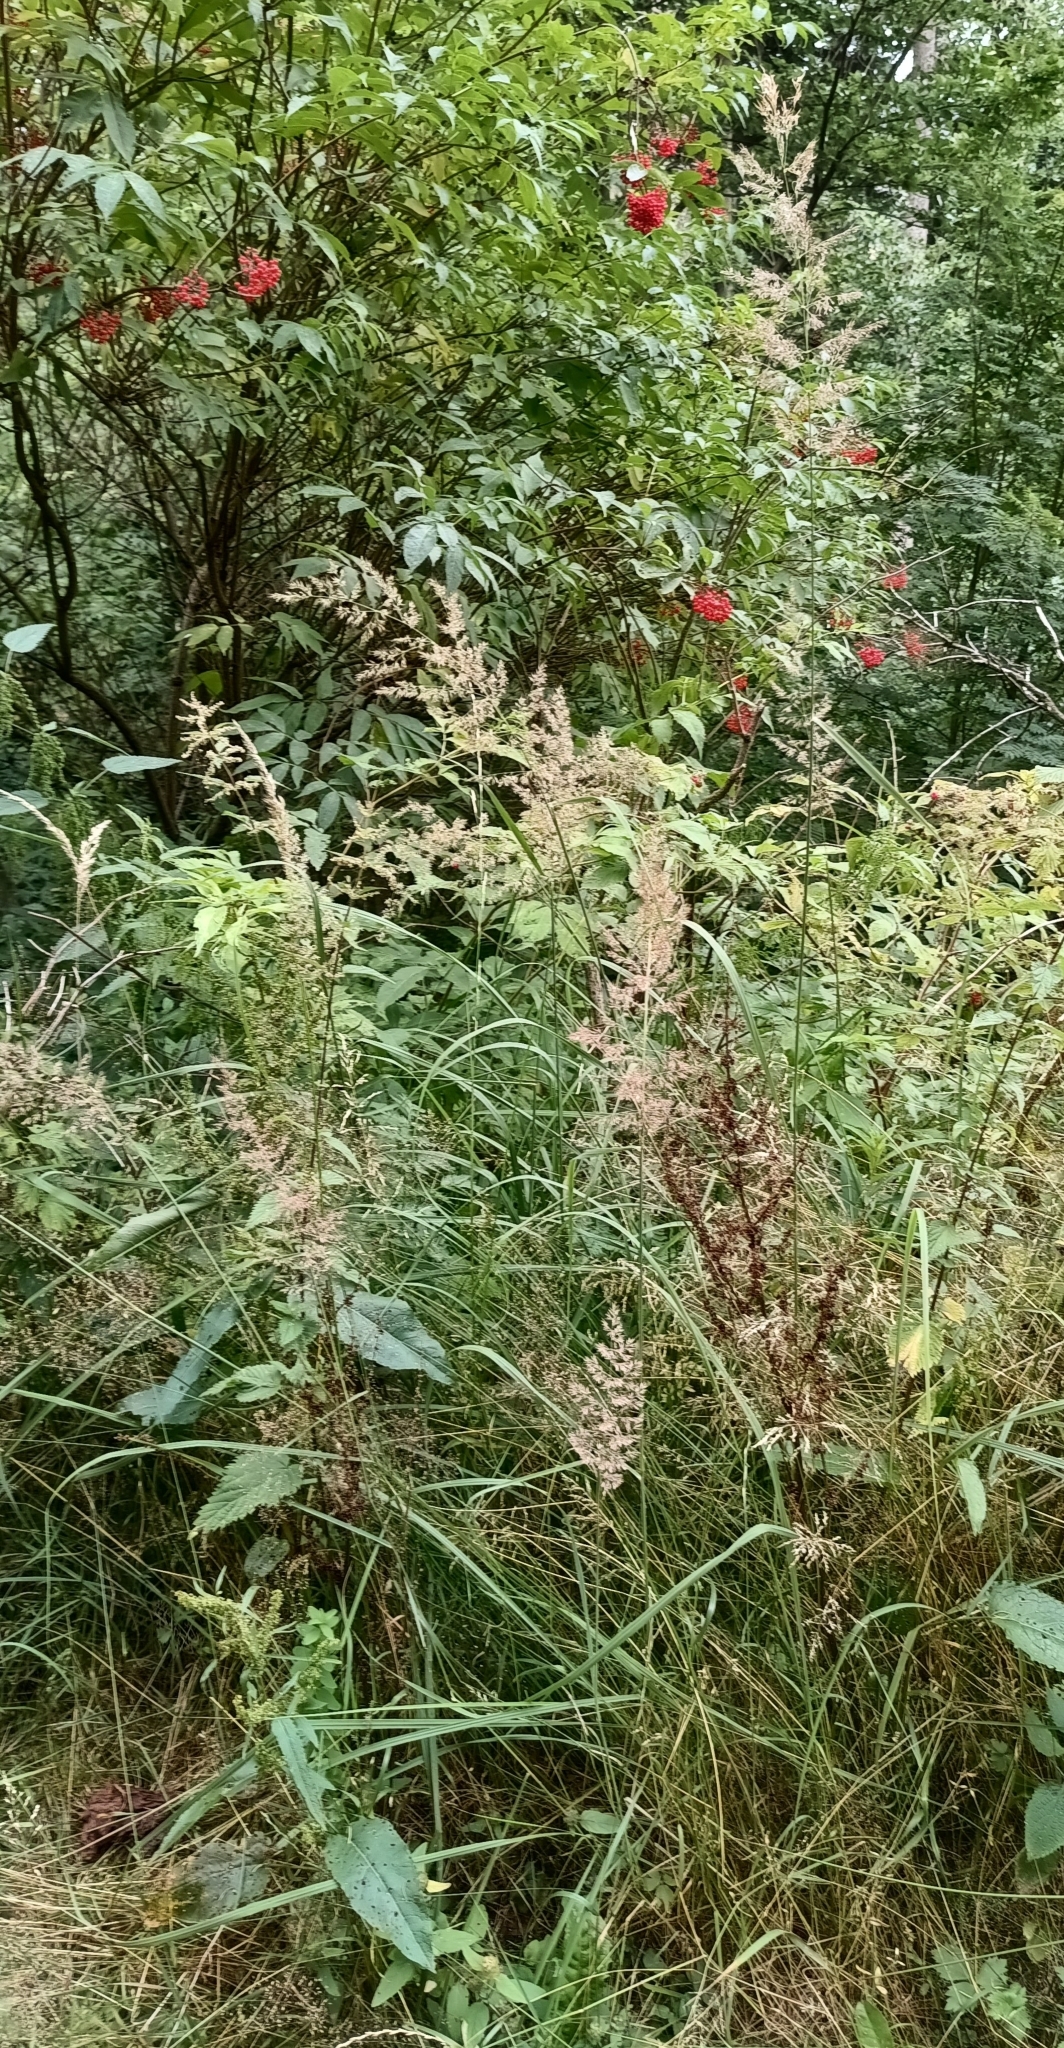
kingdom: Plantae
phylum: Tracheophyta
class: Liliopsida
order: Poales
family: Poaceae
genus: Calamagrostis
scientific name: Calamagrostis epigejos
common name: Wood small-reed
